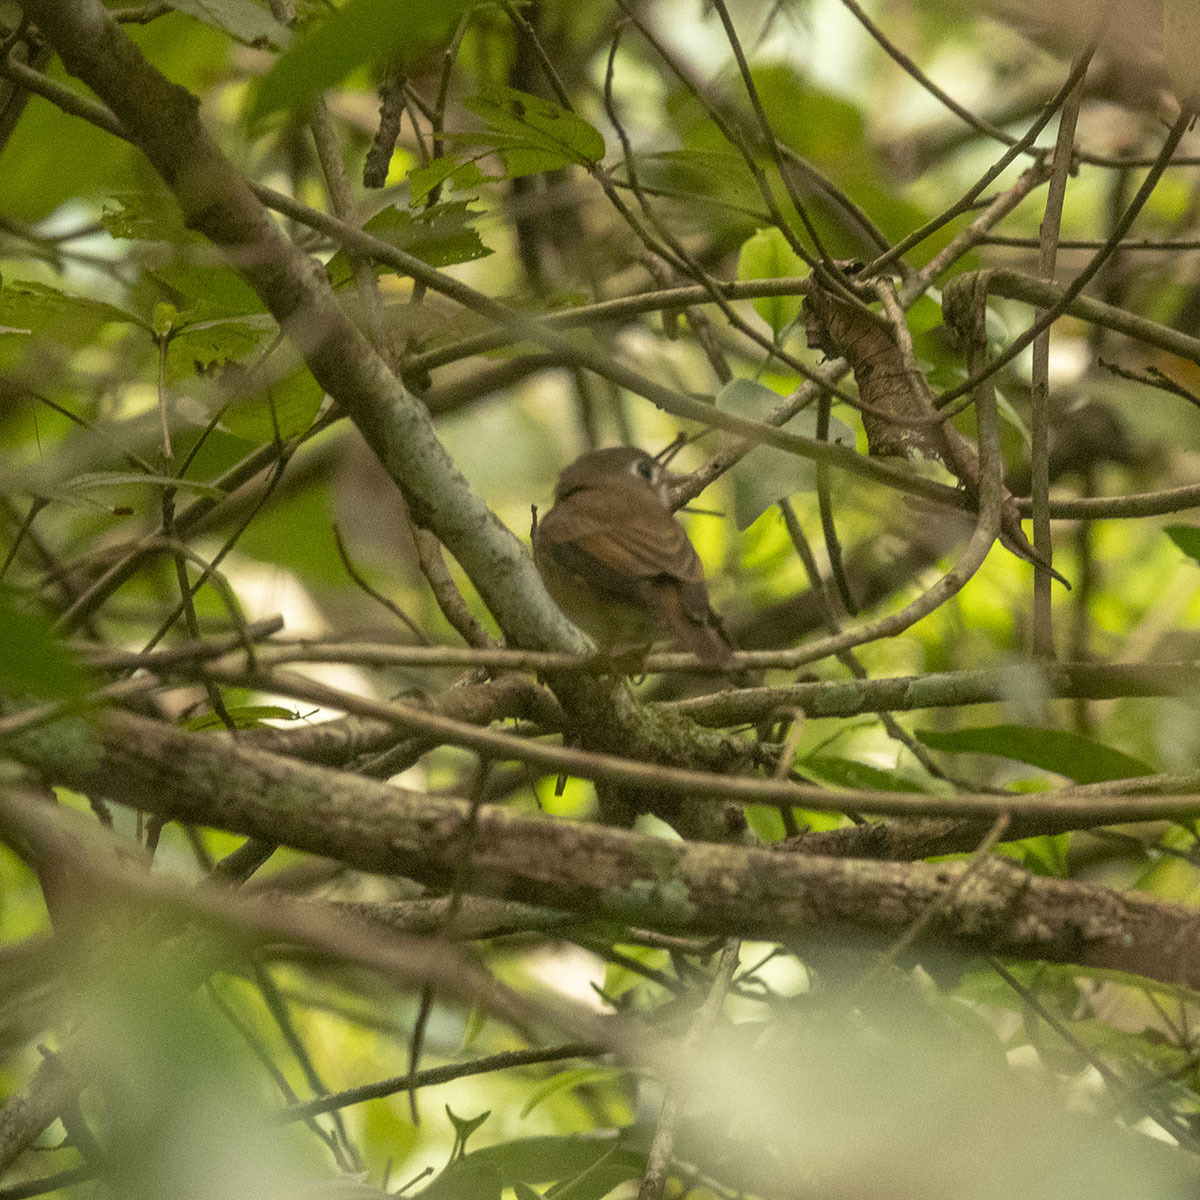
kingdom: Animalia
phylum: Chordata
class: Aves
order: Passeriformes
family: Muscicapidae
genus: Muscicapa
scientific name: Muscicapa muttui
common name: Brown-breasted flycatcher
